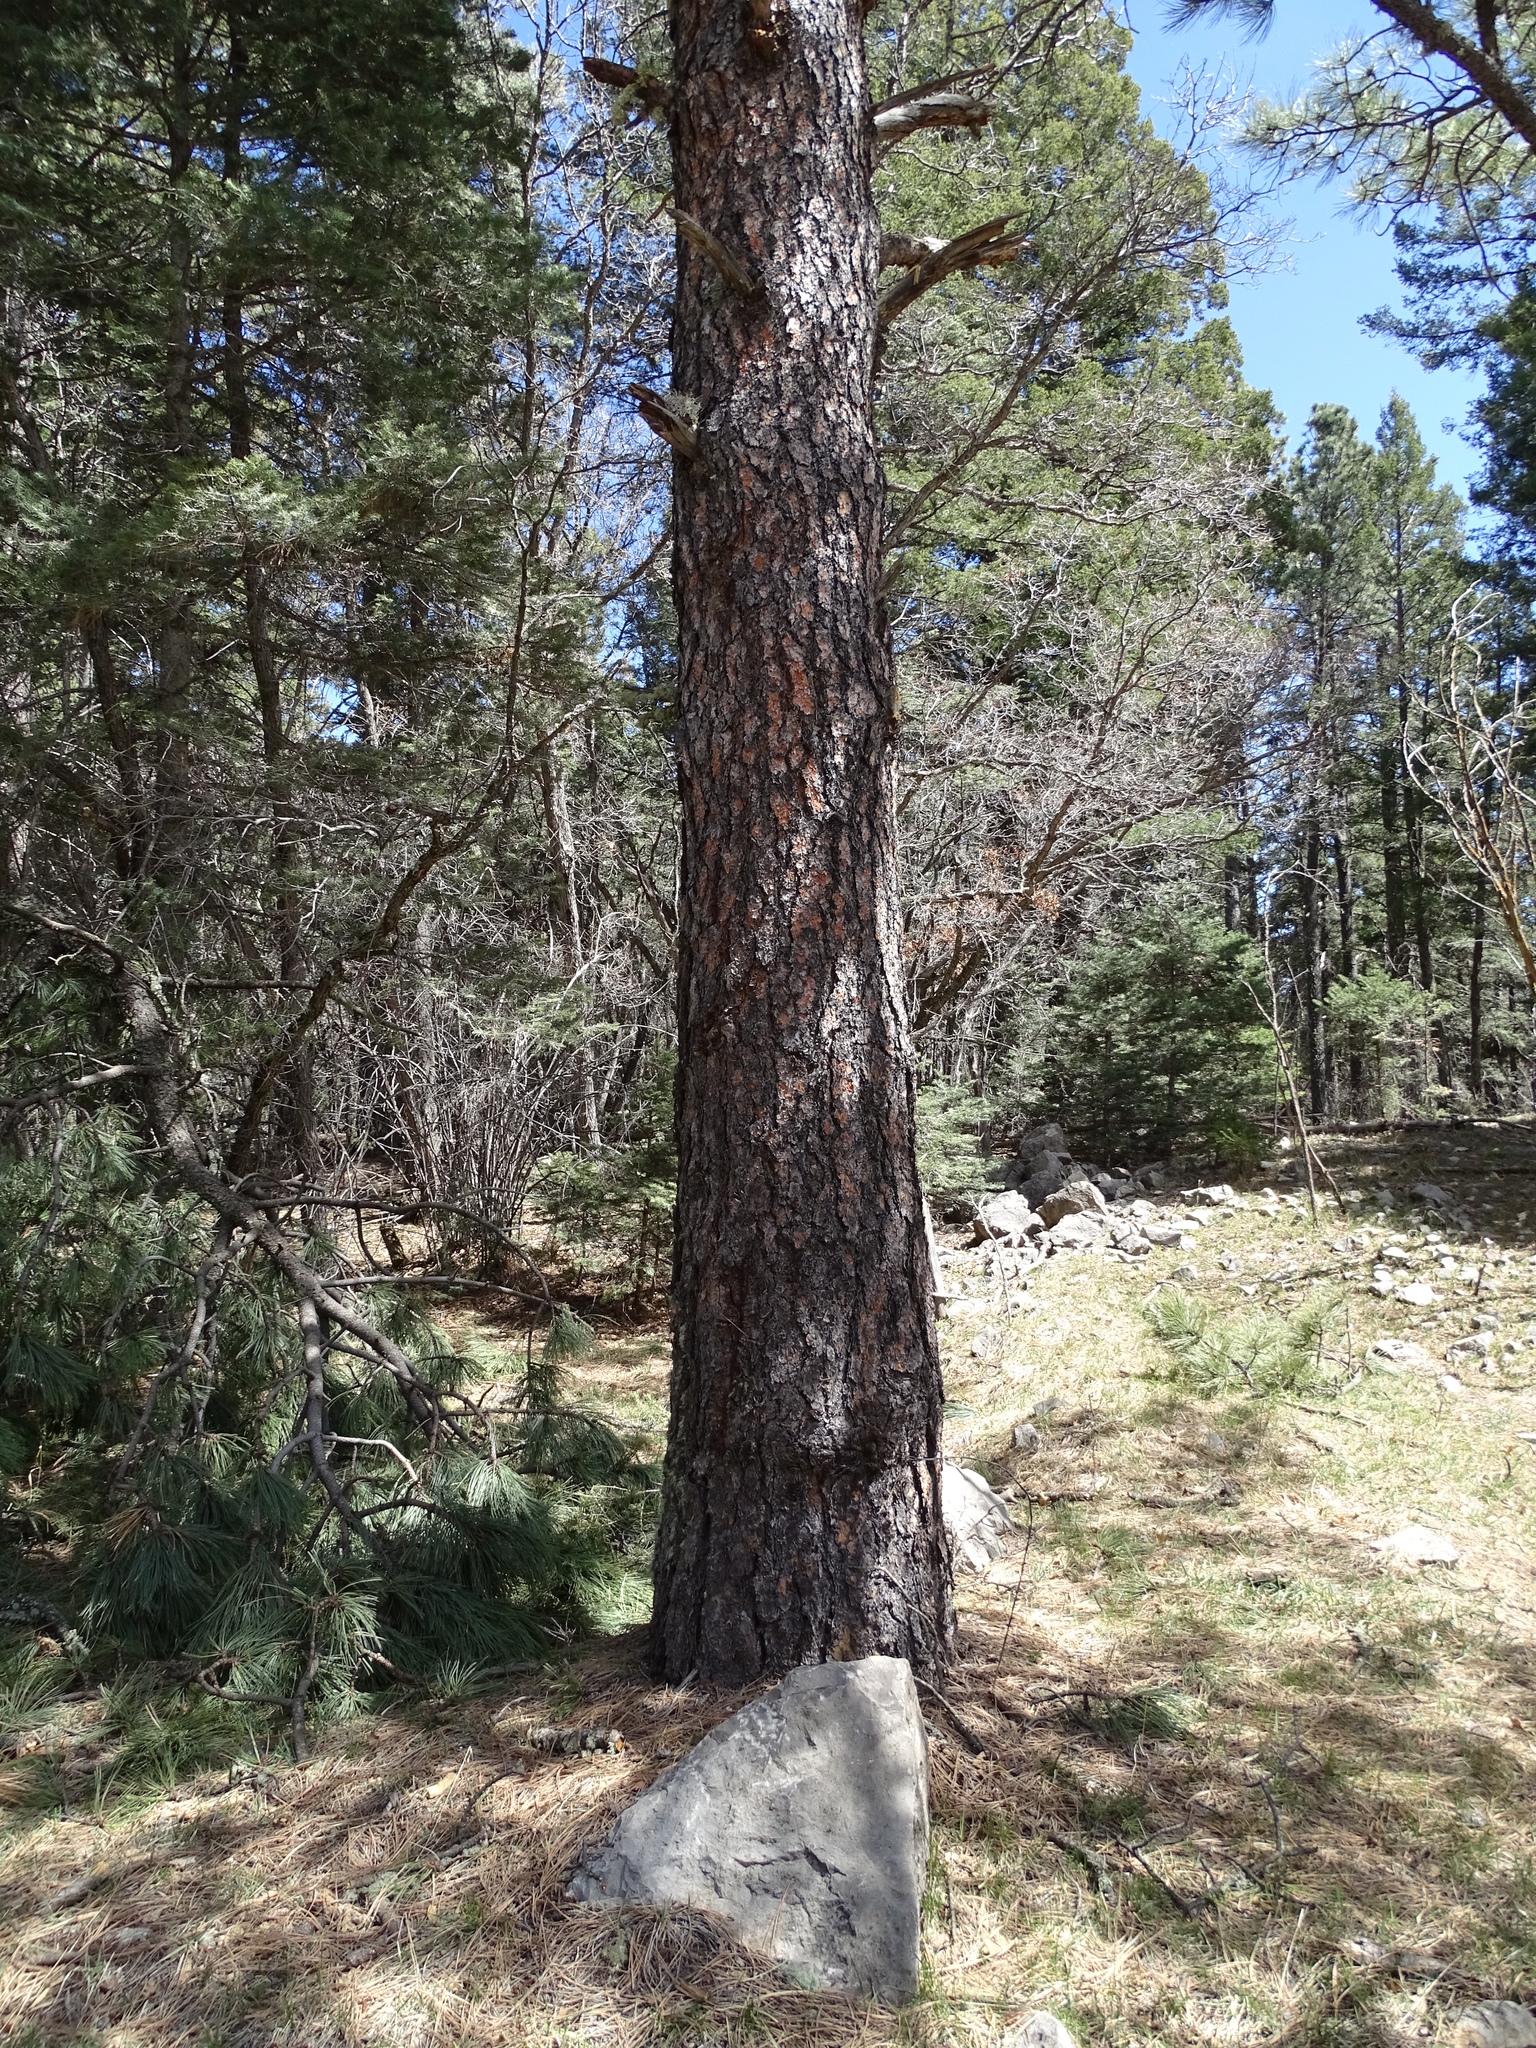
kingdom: Plantae
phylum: Tracheophyta
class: Pinopsida
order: Pinales
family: Pinaceae
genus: Pinus
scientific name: Pinus ponderosa
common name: Western yellow-pine
